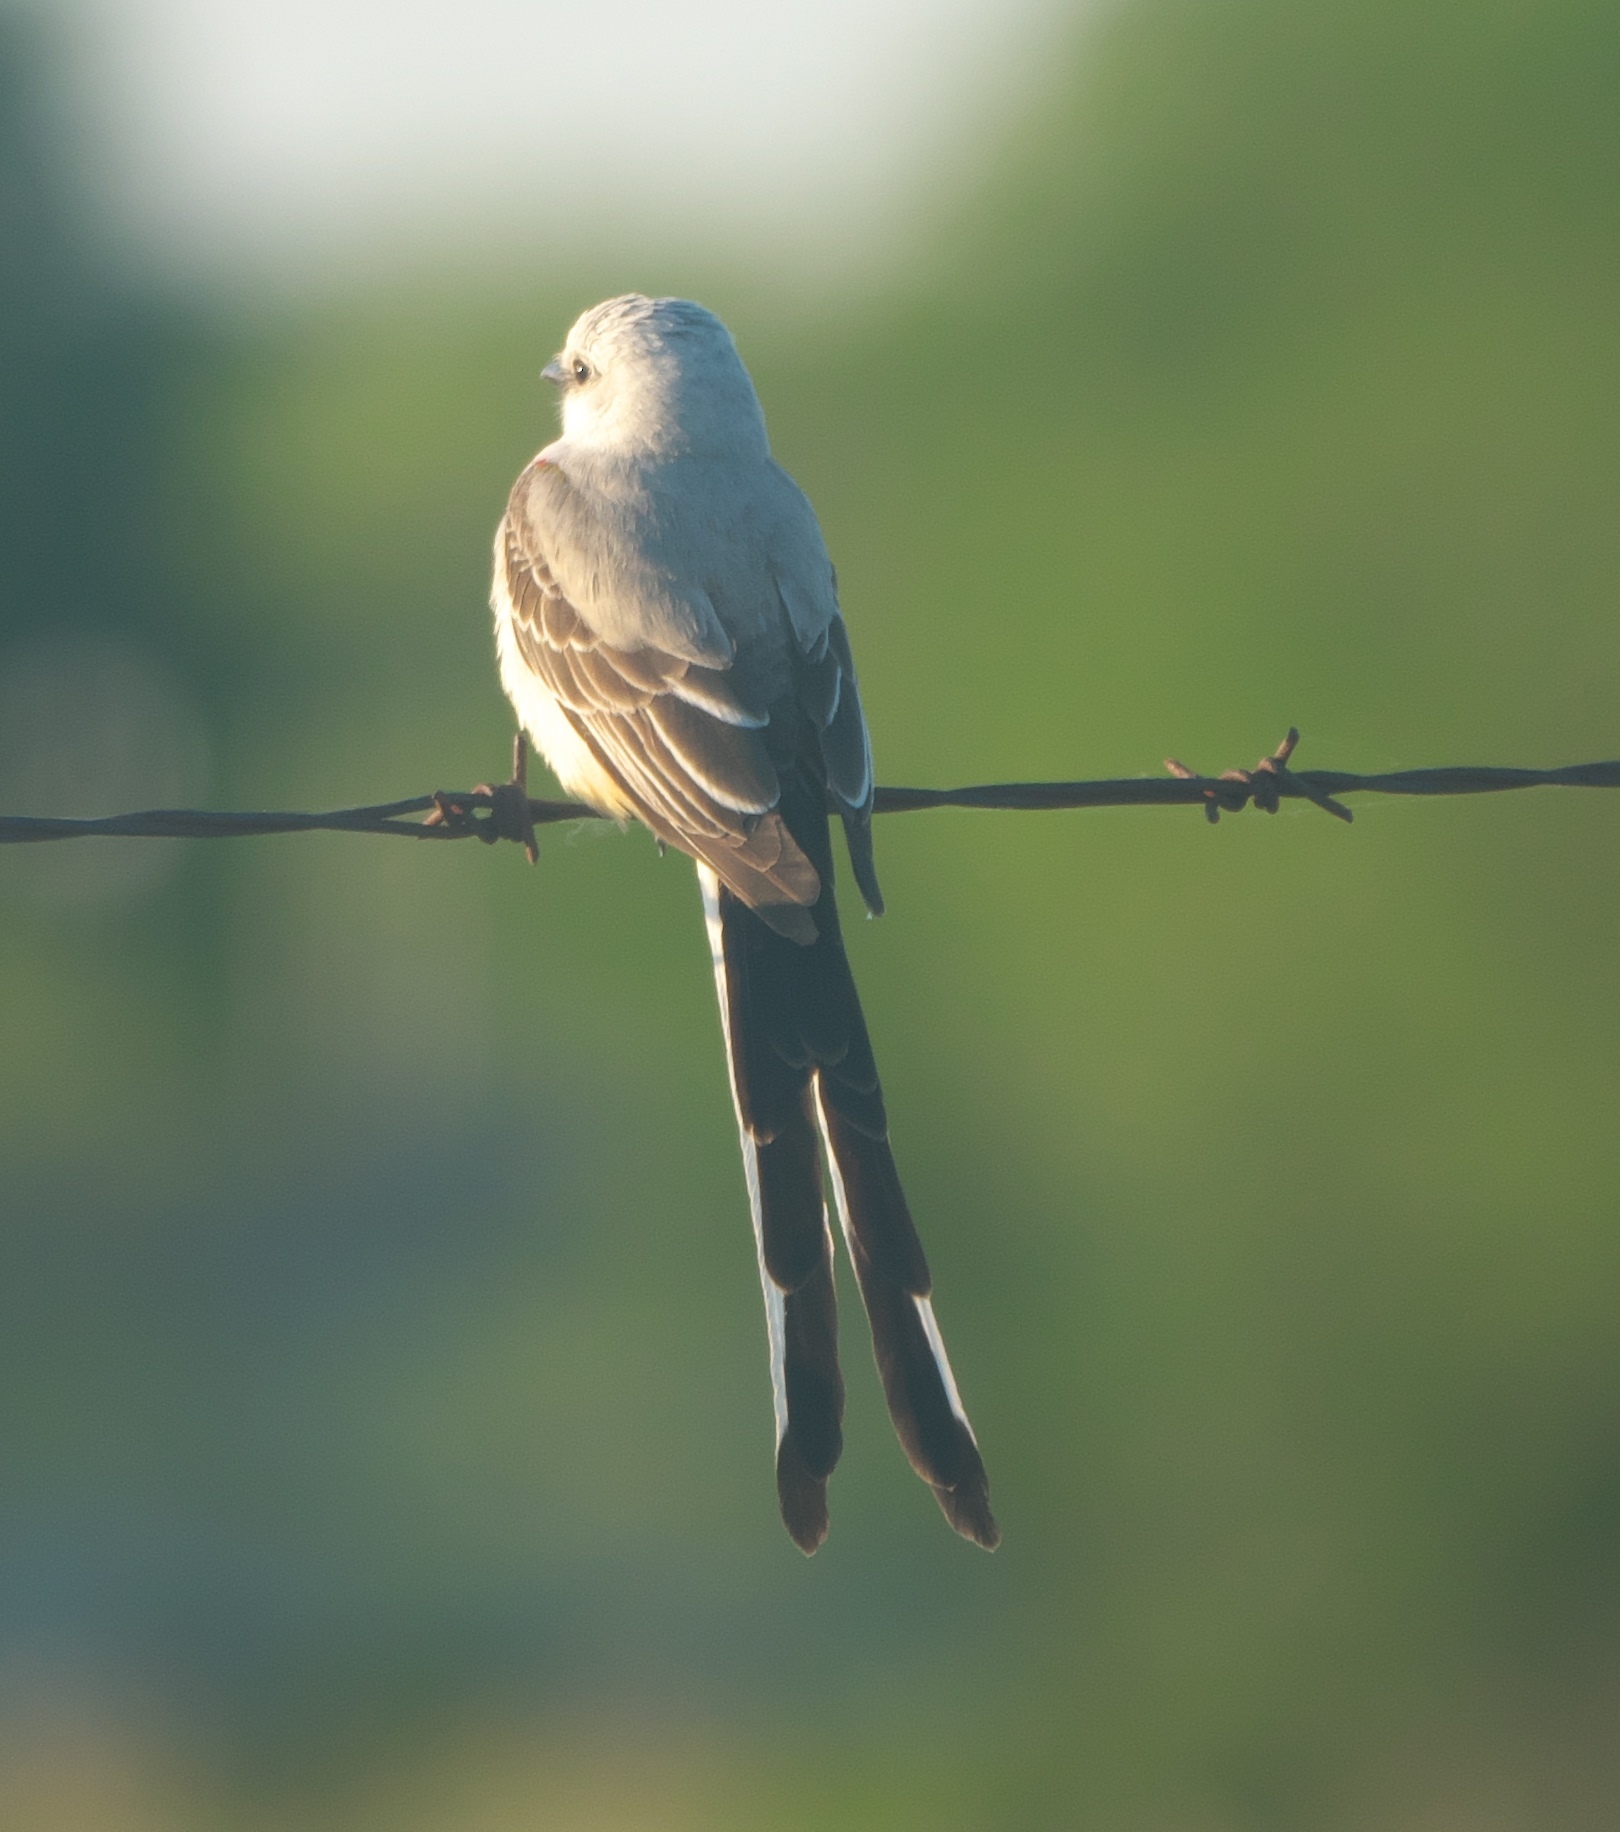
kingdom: Animalia
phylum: Chordata
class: Aves
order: Passeriformes
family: Tyrannidae
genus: Tyrannus
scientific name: Tyrannus forficatus
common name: Scissor-tailed flycatcher
